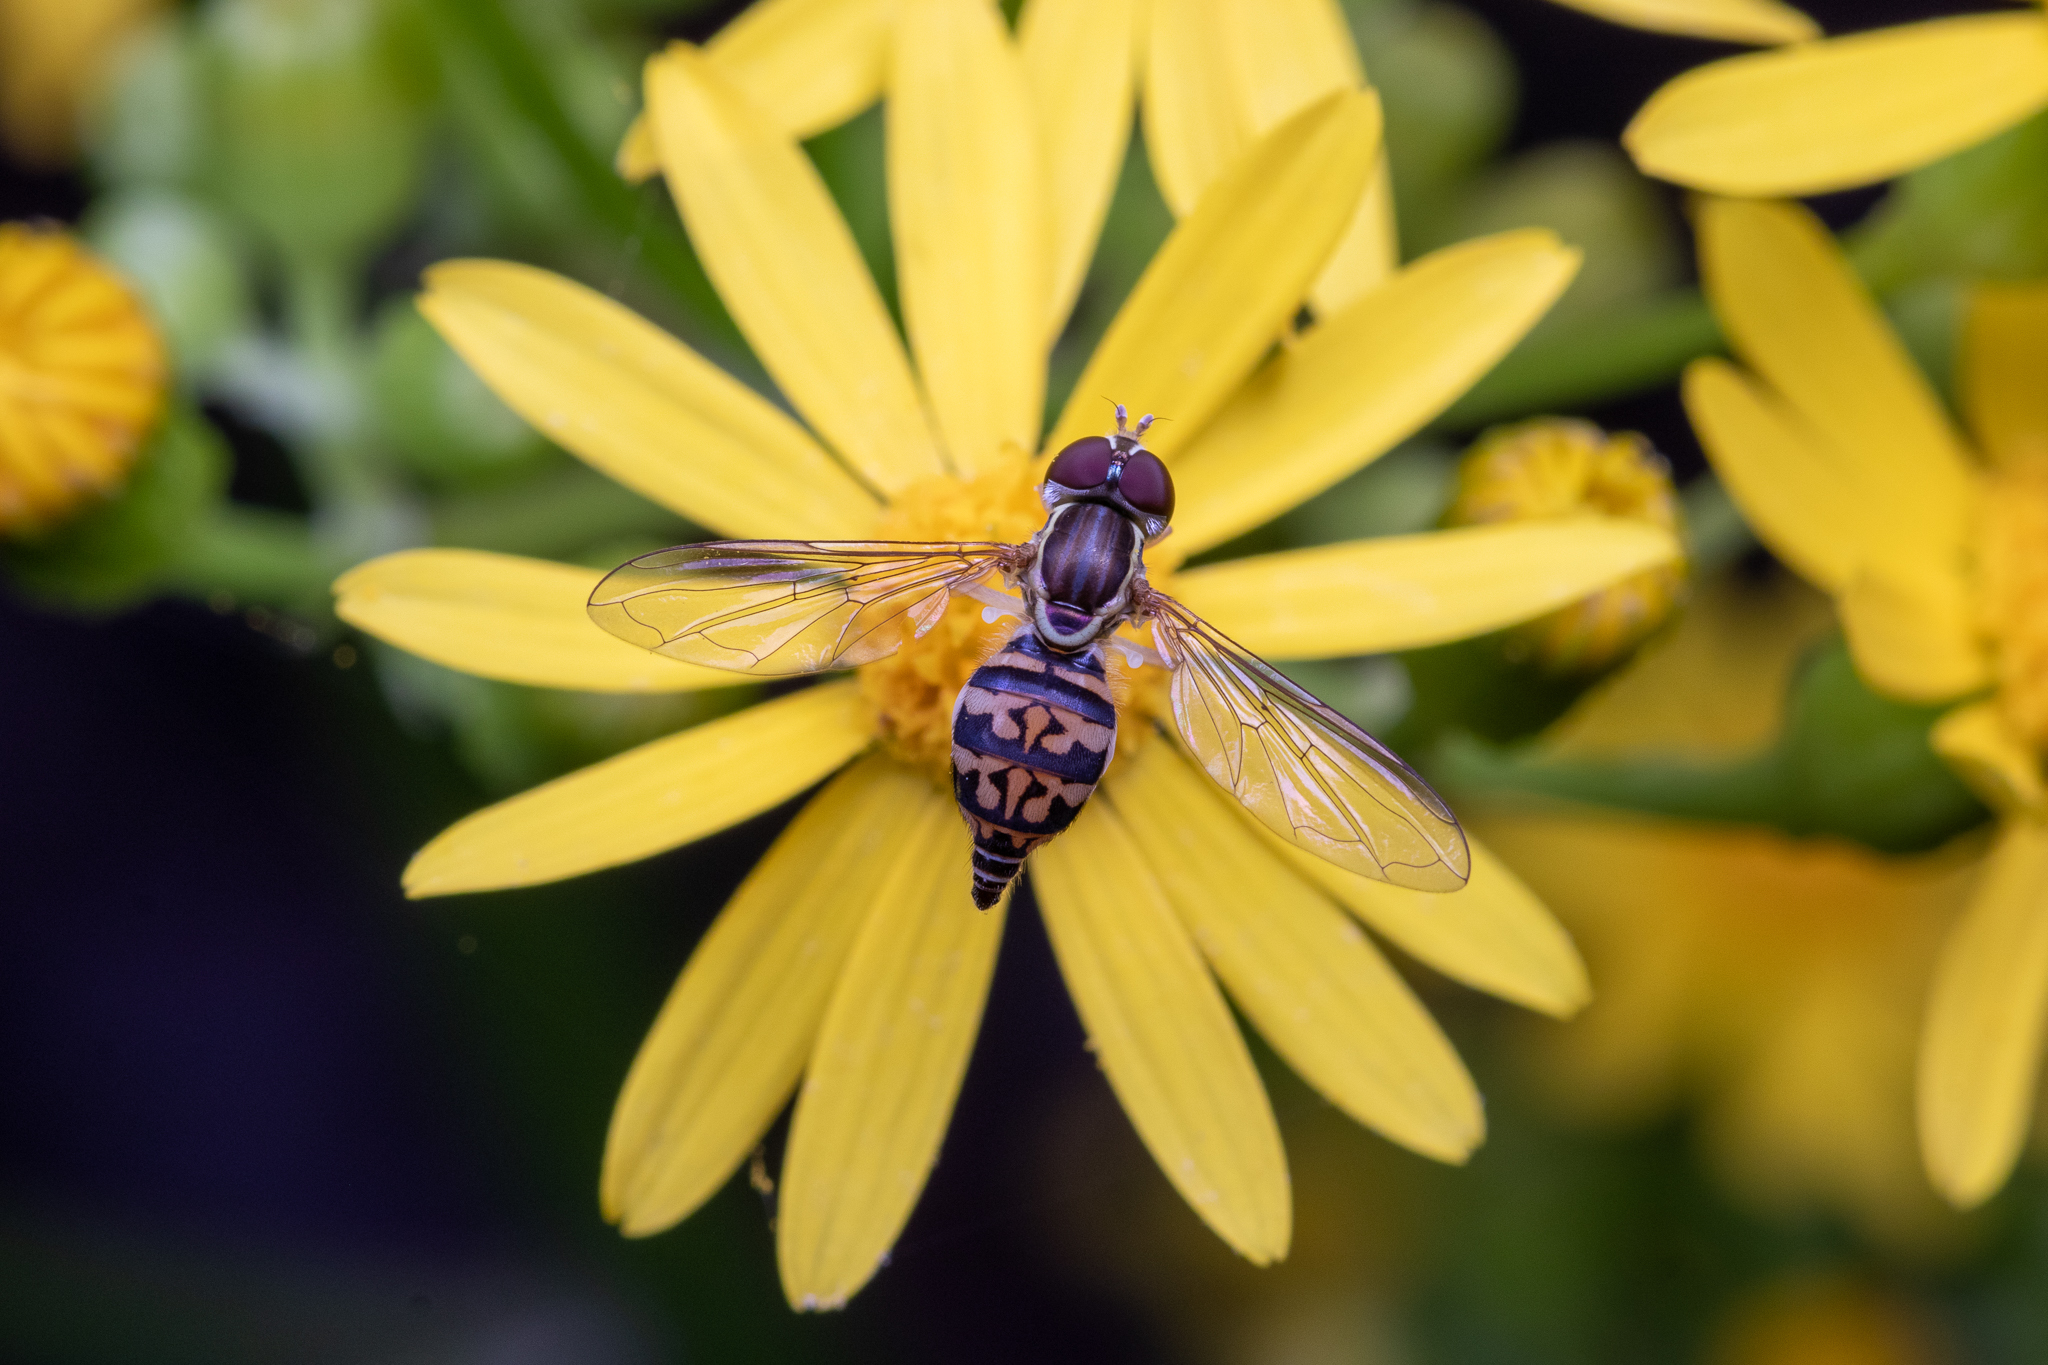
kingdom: Animalia
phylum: Arthropoda
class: Insecta
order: Diptera
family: Syrphidae
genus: Toxomerus
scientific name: Toxomerus geminatus
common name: Eastern calligrapher
